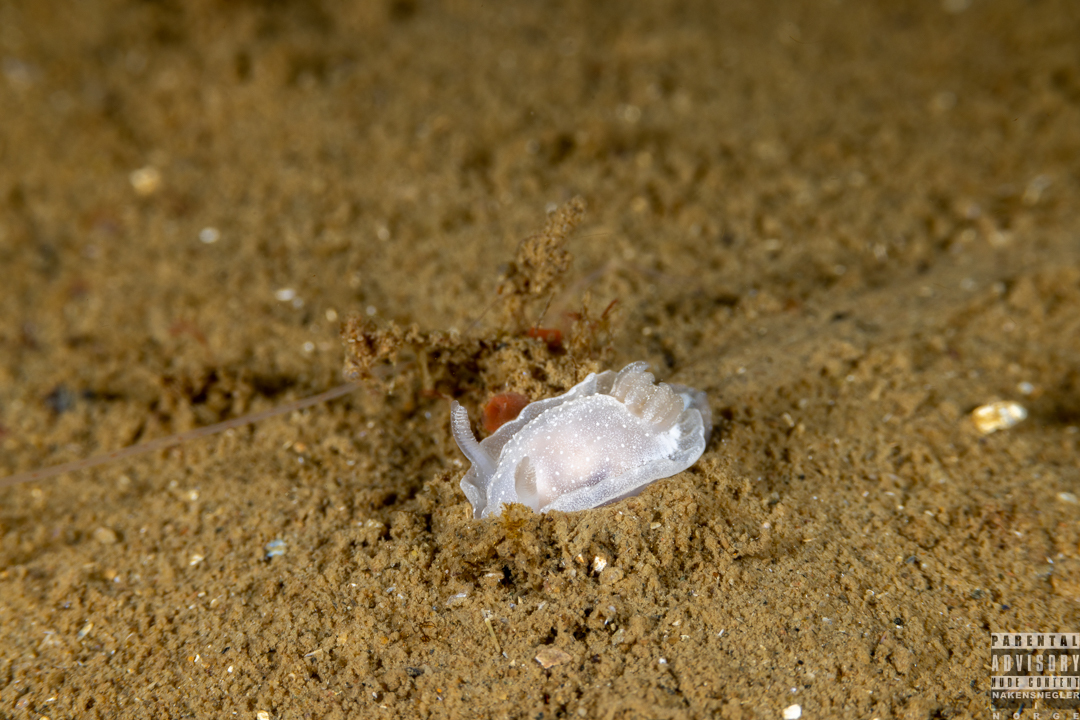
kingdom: Animalia
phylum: Mollusca
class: Gastropoda
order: Nudibranchia
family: Goniodorididae
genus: Okenia
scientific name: Okenia
